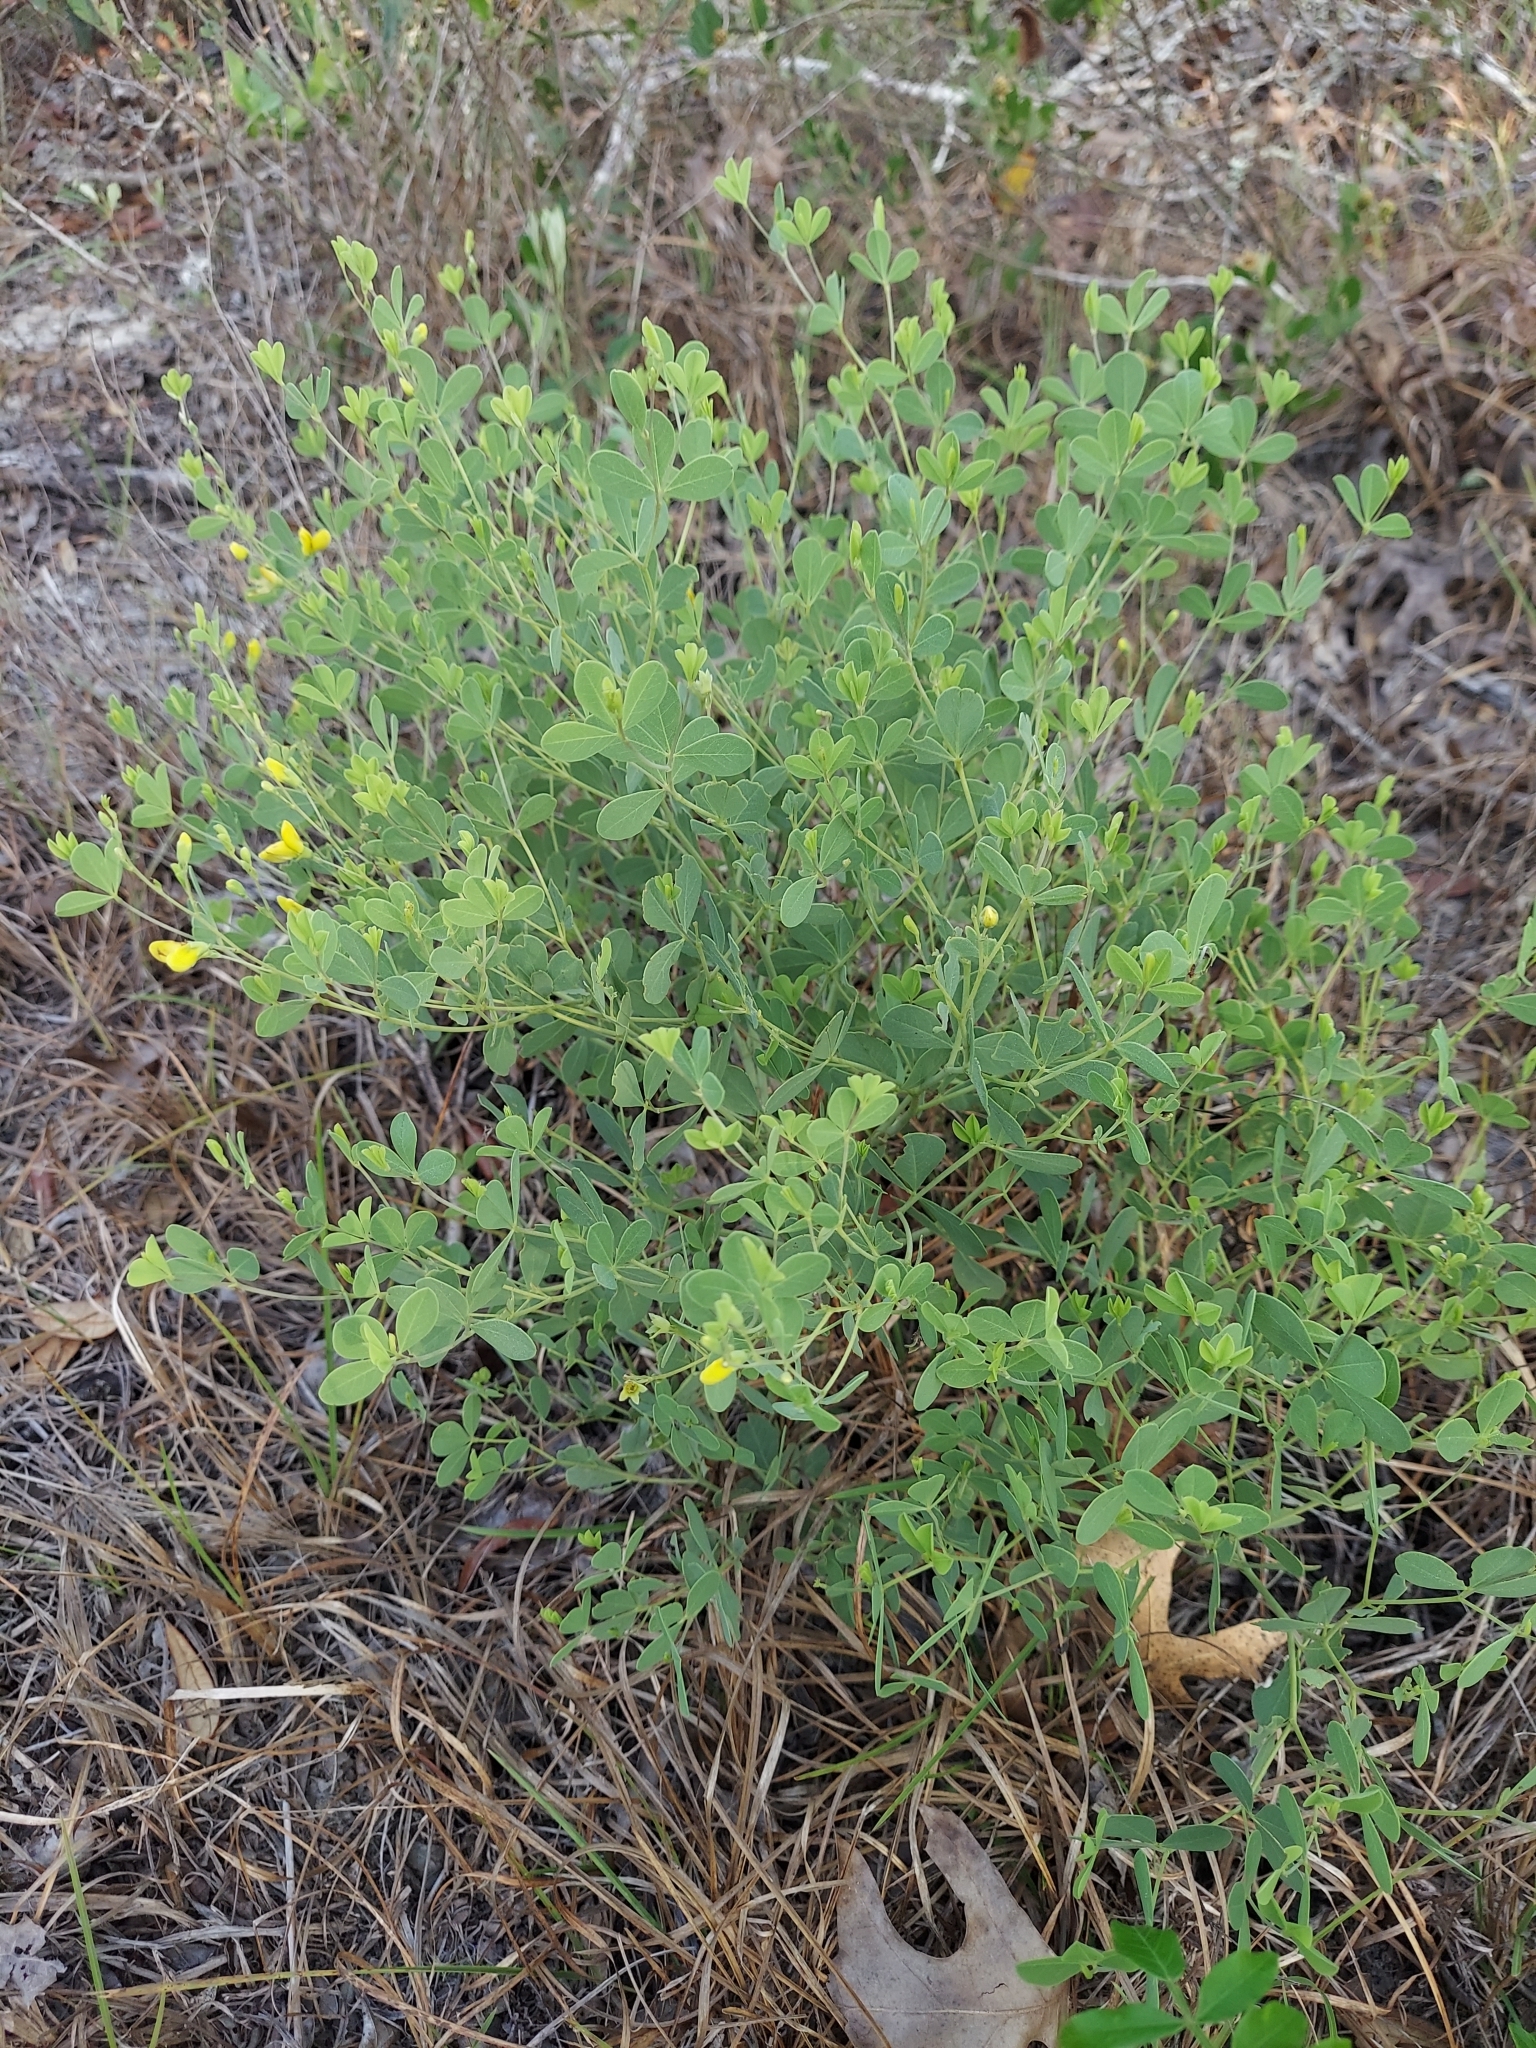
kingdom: Plantae
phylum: Tracheophyta
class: Magnoliopsida
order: Fabales
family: Fabaceae
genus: Baptisia
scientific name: Baptisia lecontei
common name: Pineland wild indigo
